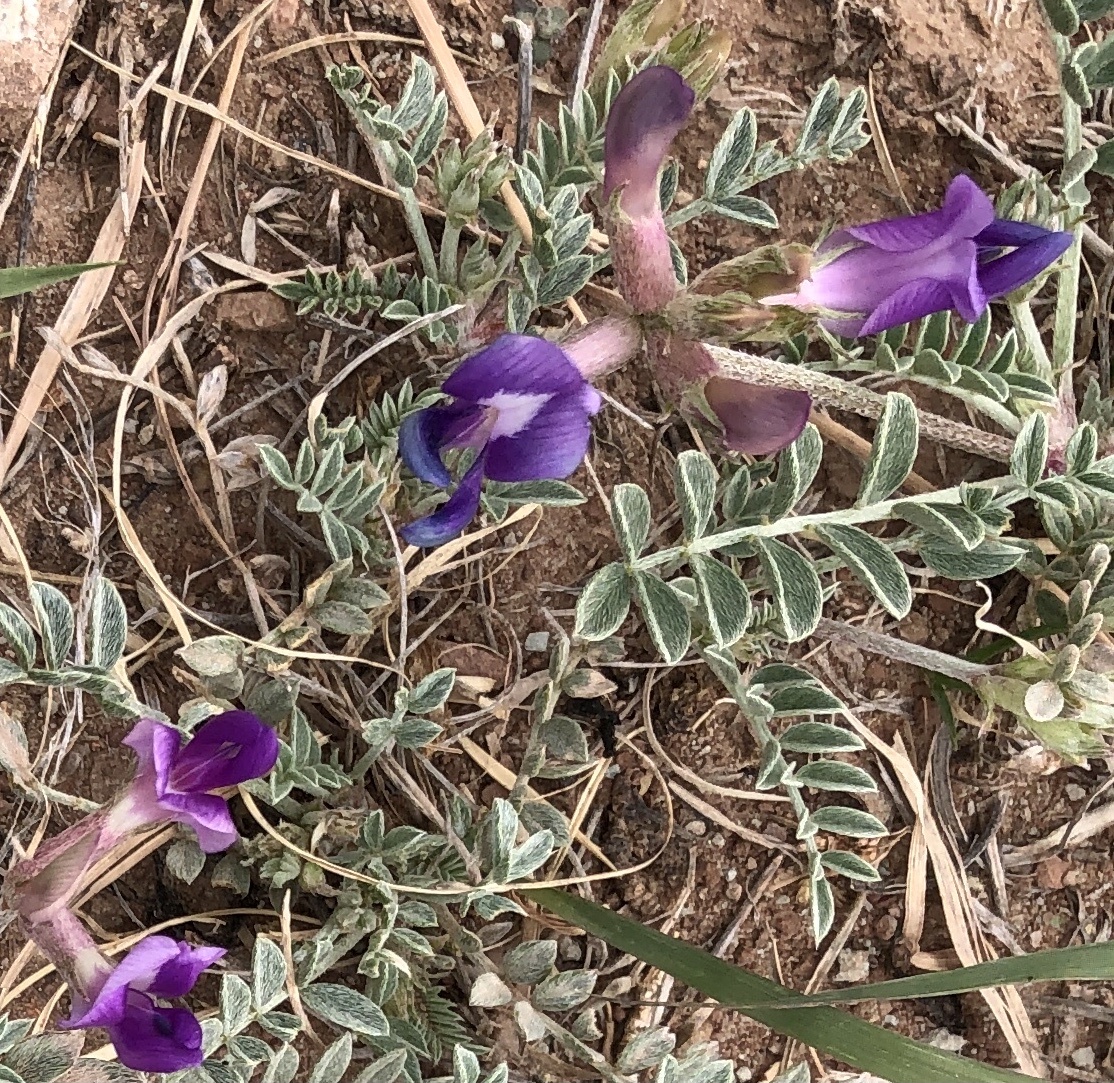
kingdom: Plantae
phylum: Tracheophyta
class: Magnoliopsida
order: Fabales
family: Fabaceae
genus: Astragalus
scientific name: Astragalus missouriensis
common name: Missouri milk-vetch
